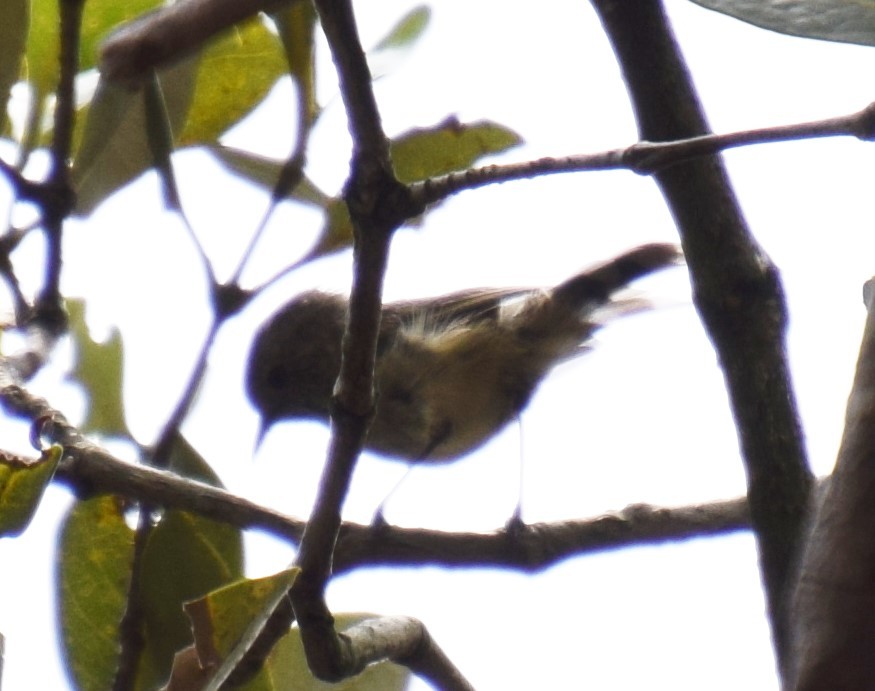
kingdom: Animalia
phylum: Chordata
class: Aves
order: Passeriformes
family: Acanthizidae
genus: Acanthiza
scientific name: Acanthiza pusilla
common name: Brown thornbill
